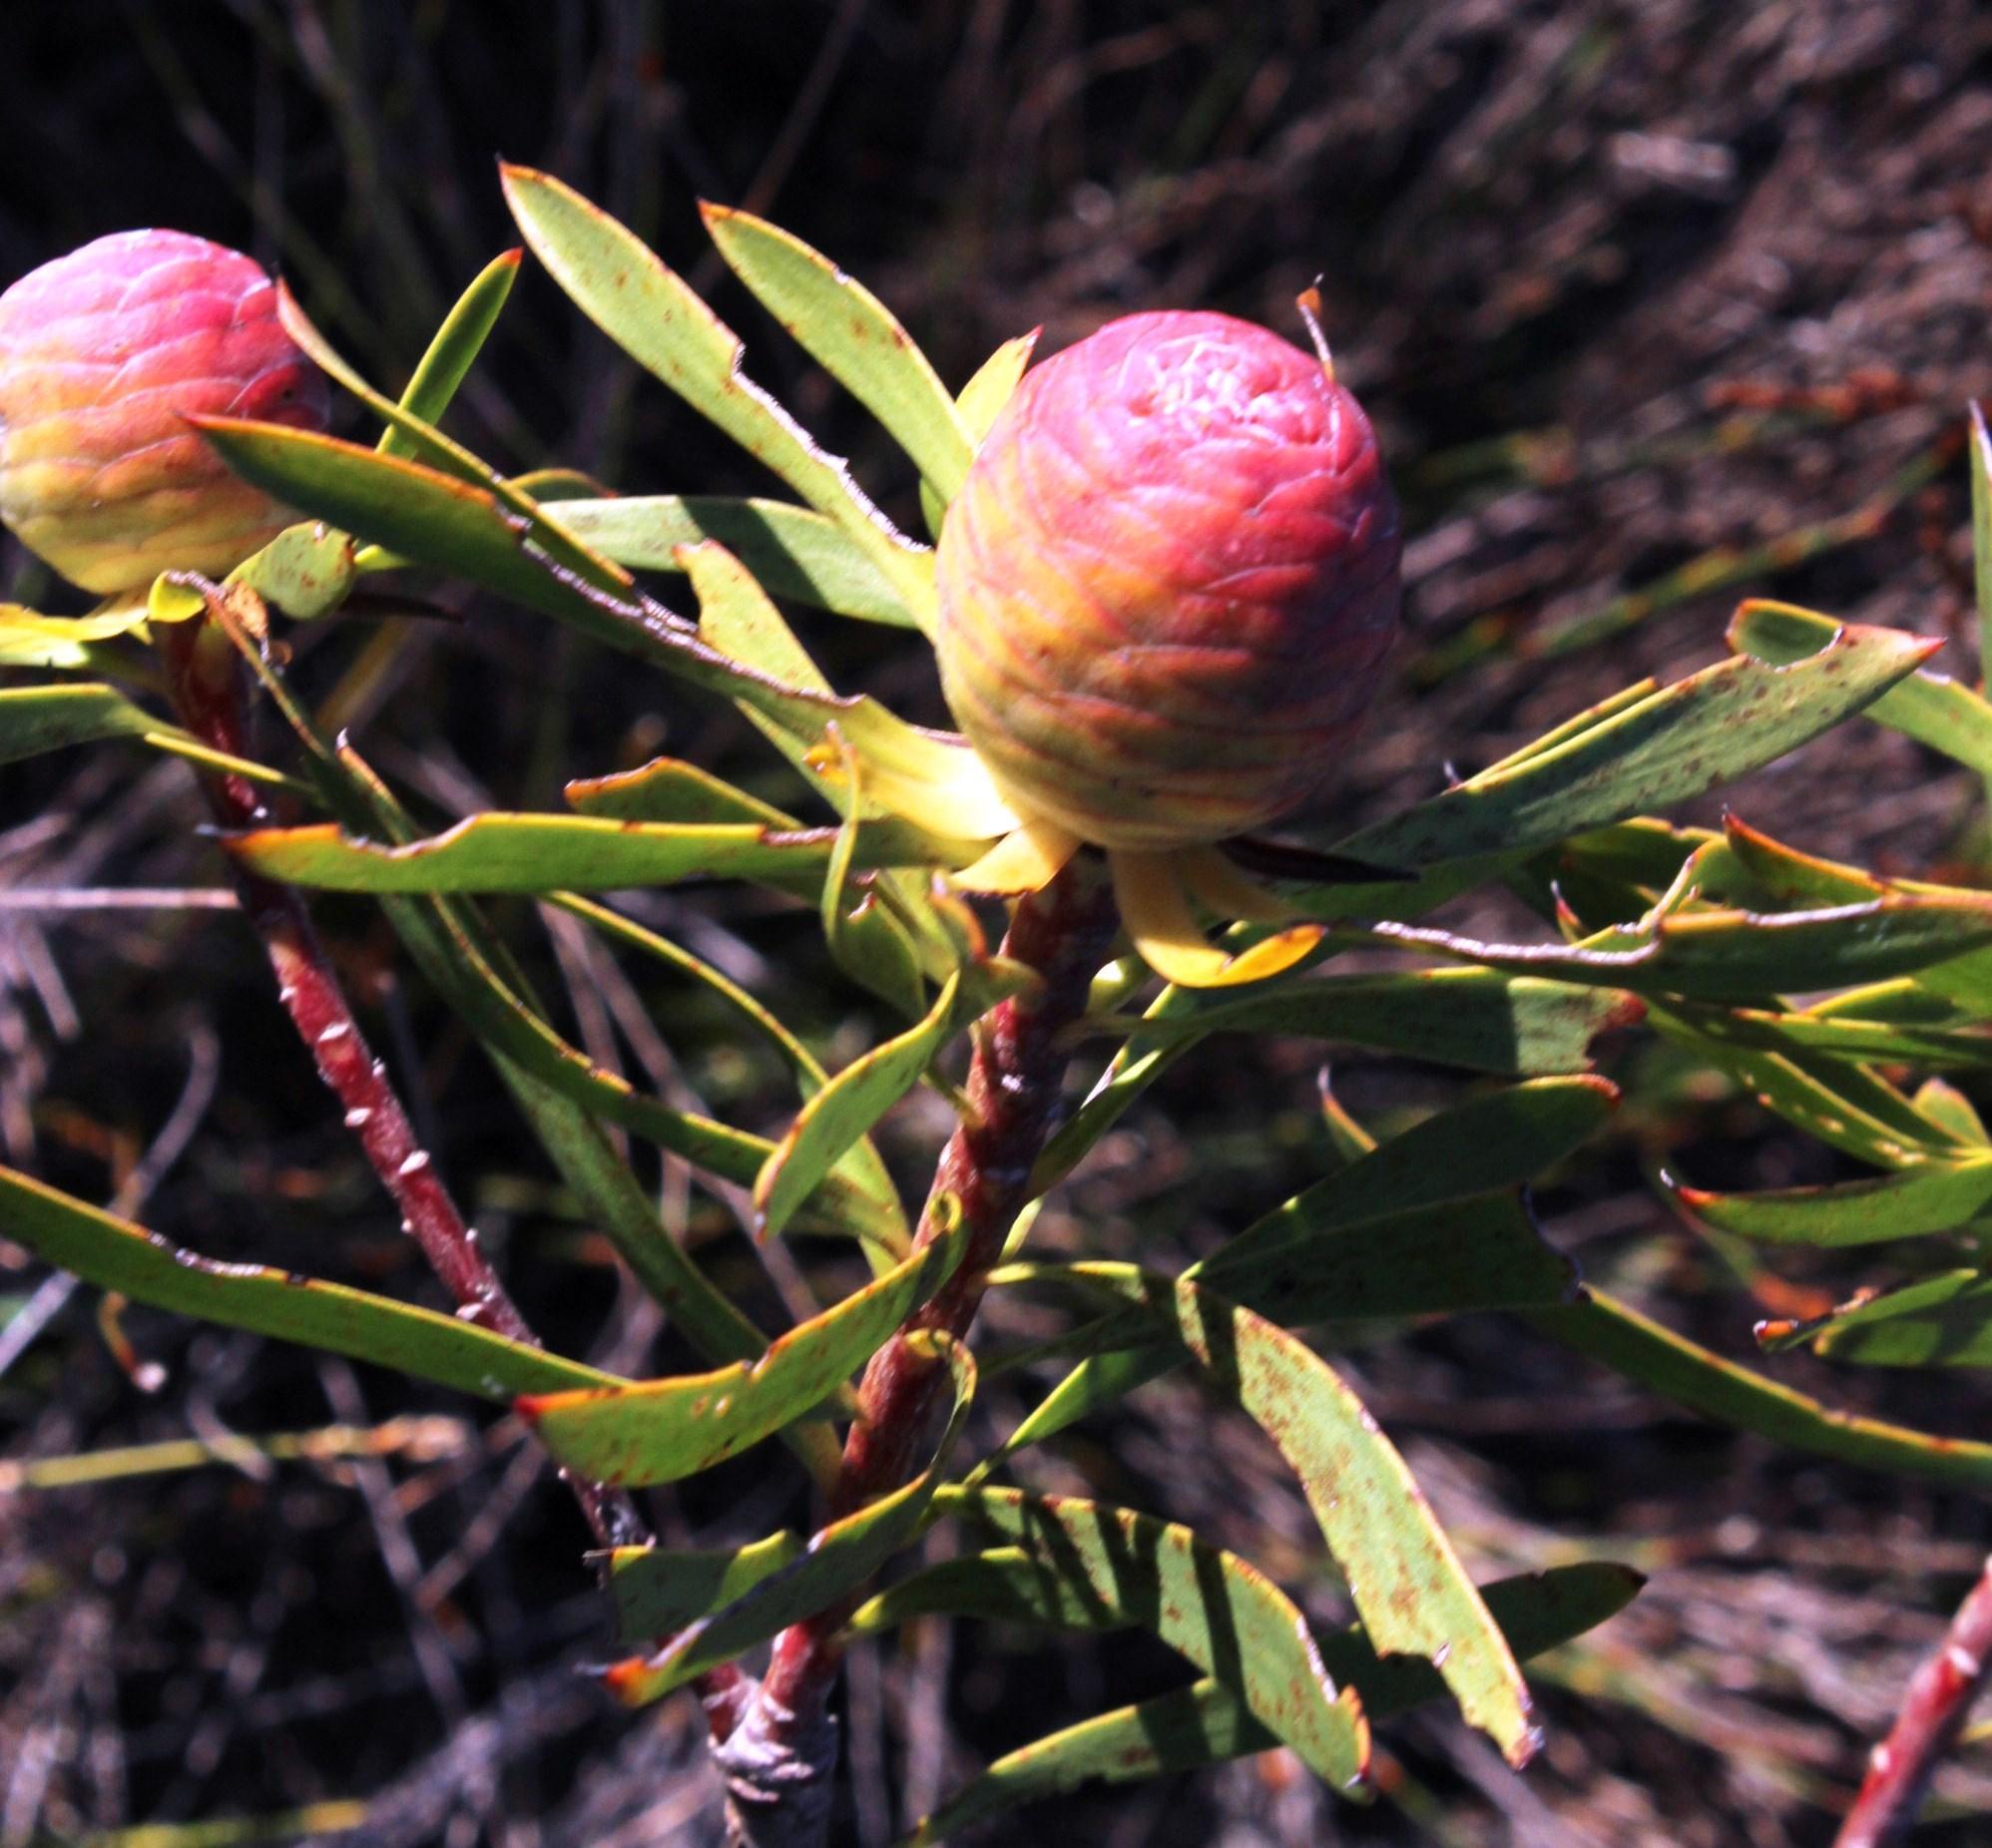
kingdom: Plantae
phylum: Tracheophyta
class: Magnoliopsida
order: Proteales
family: Proteaceae
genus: Leucadendron
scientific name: Leucadendron coniferum
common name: Dune conebush
